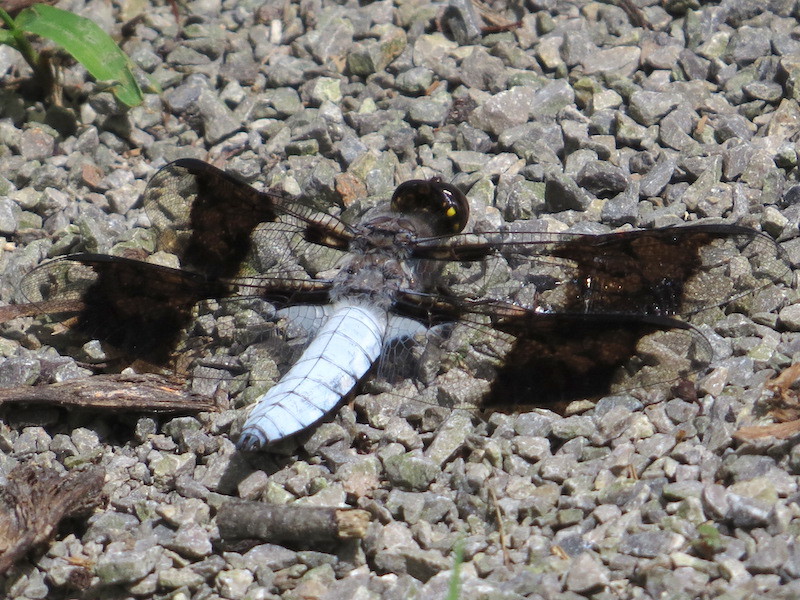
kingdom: Animalia
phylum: Arthropoda
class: Insecta
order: Odonata
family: Libellulidae
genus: Plathemis
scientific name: Plathemis lydia
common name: Common whitetail
